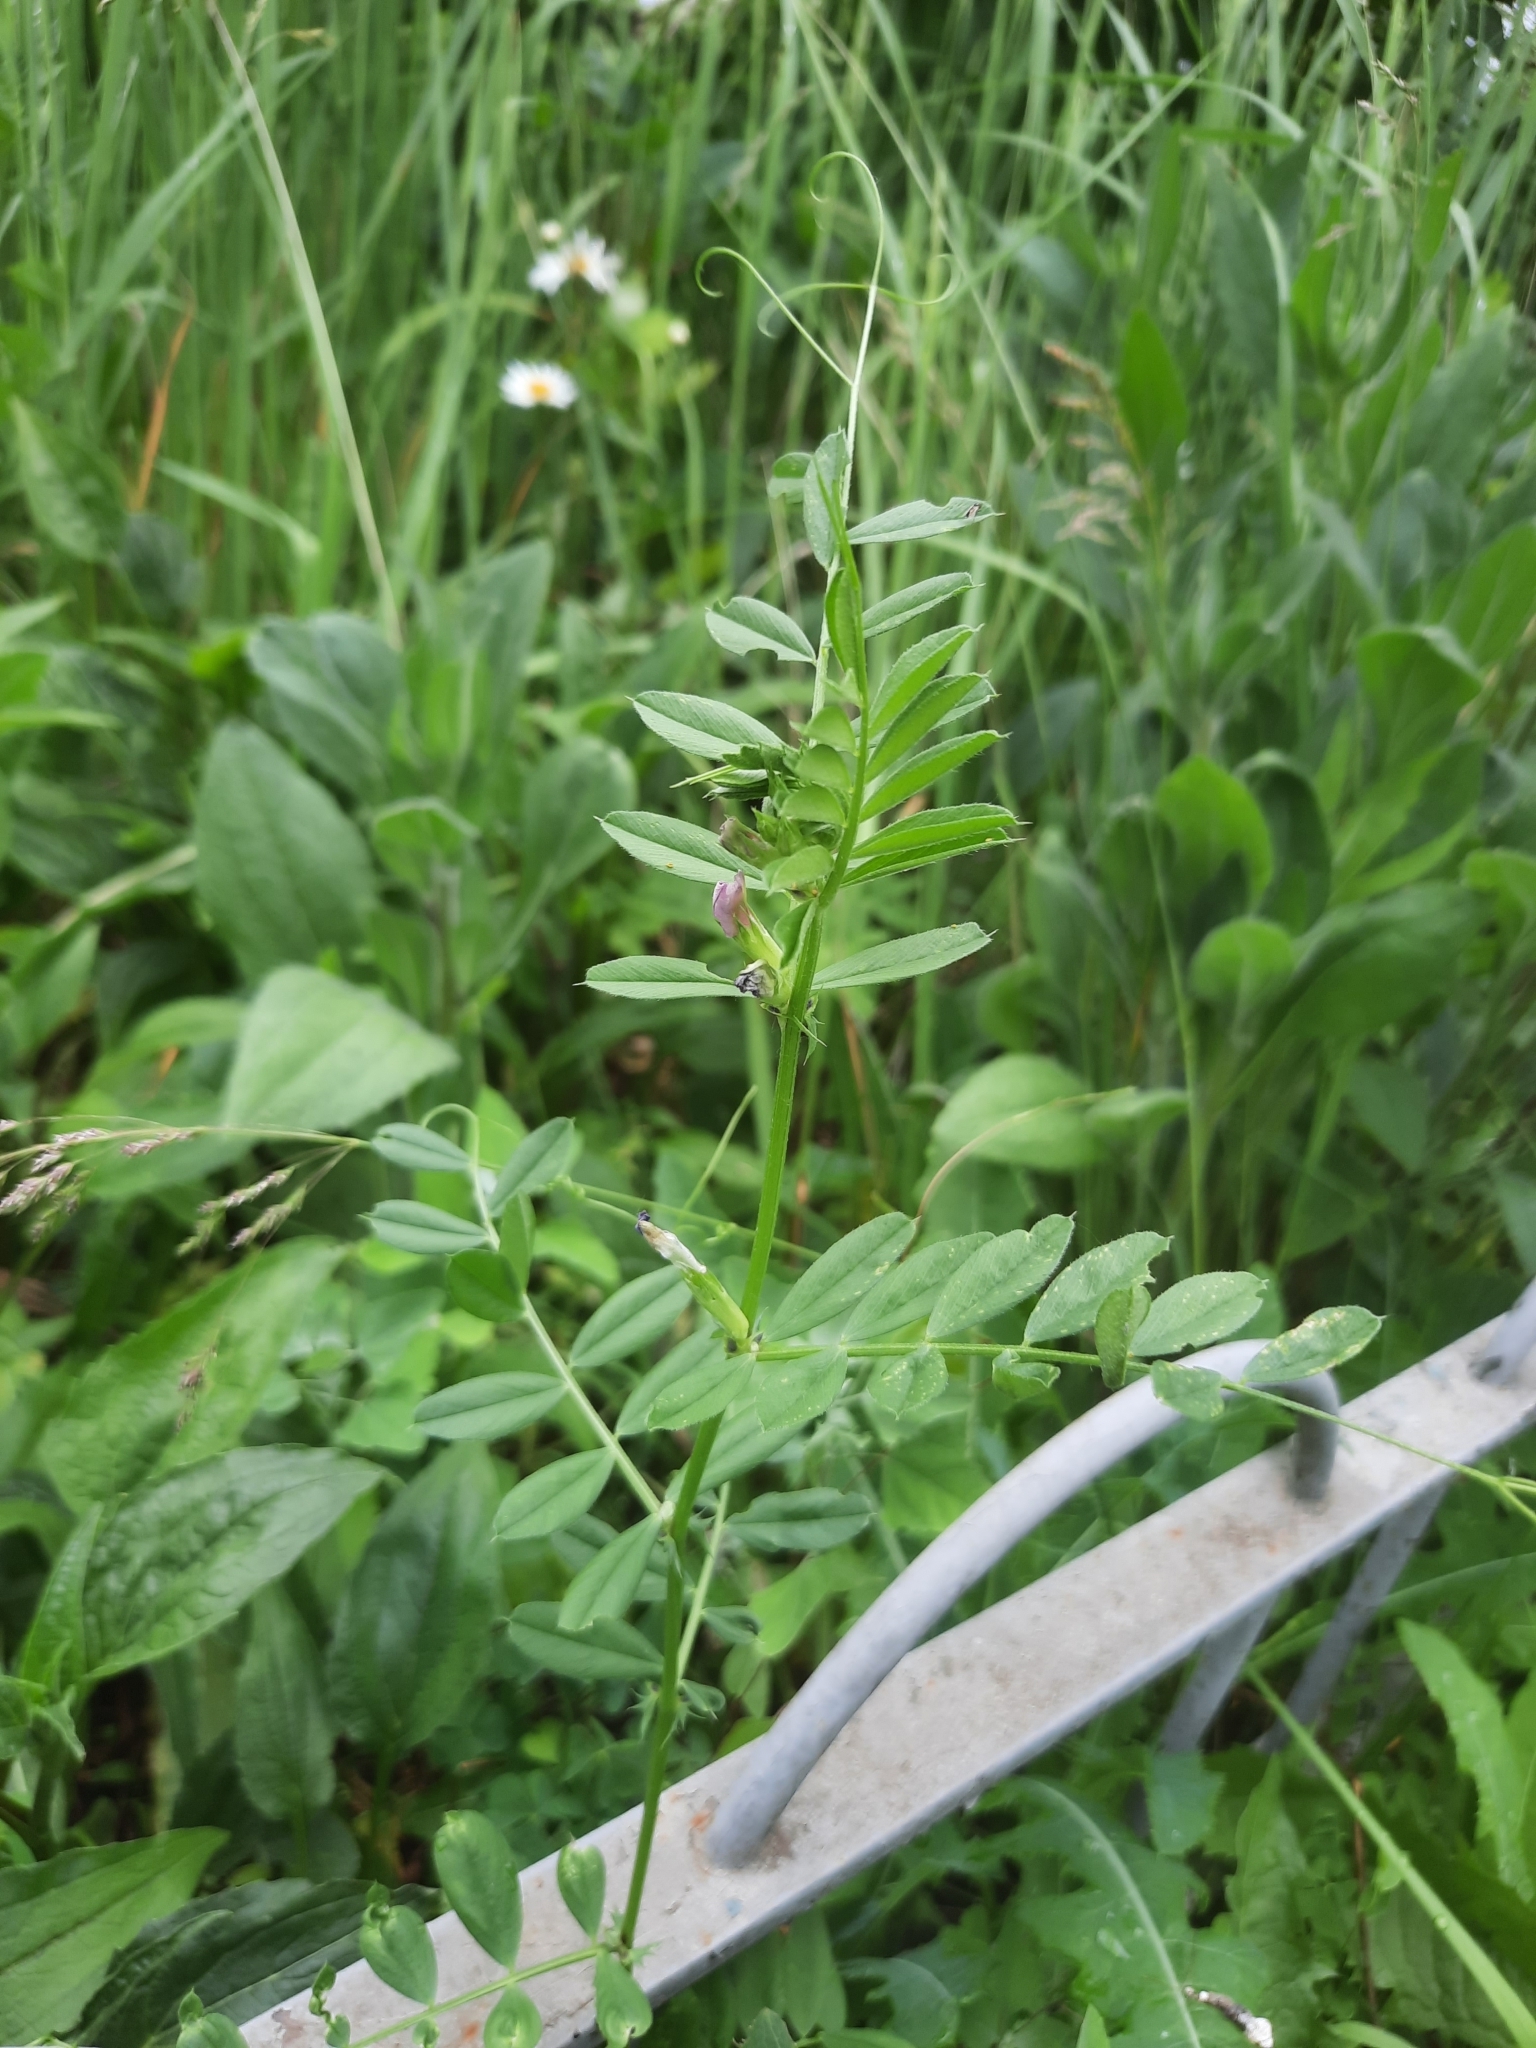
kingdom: Plantae
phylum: Tracheophyta
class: Magnoliopsida
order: Fabales
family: Fabaceae
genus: Vicia
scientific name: Vicia sepium
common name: Bush vetch
